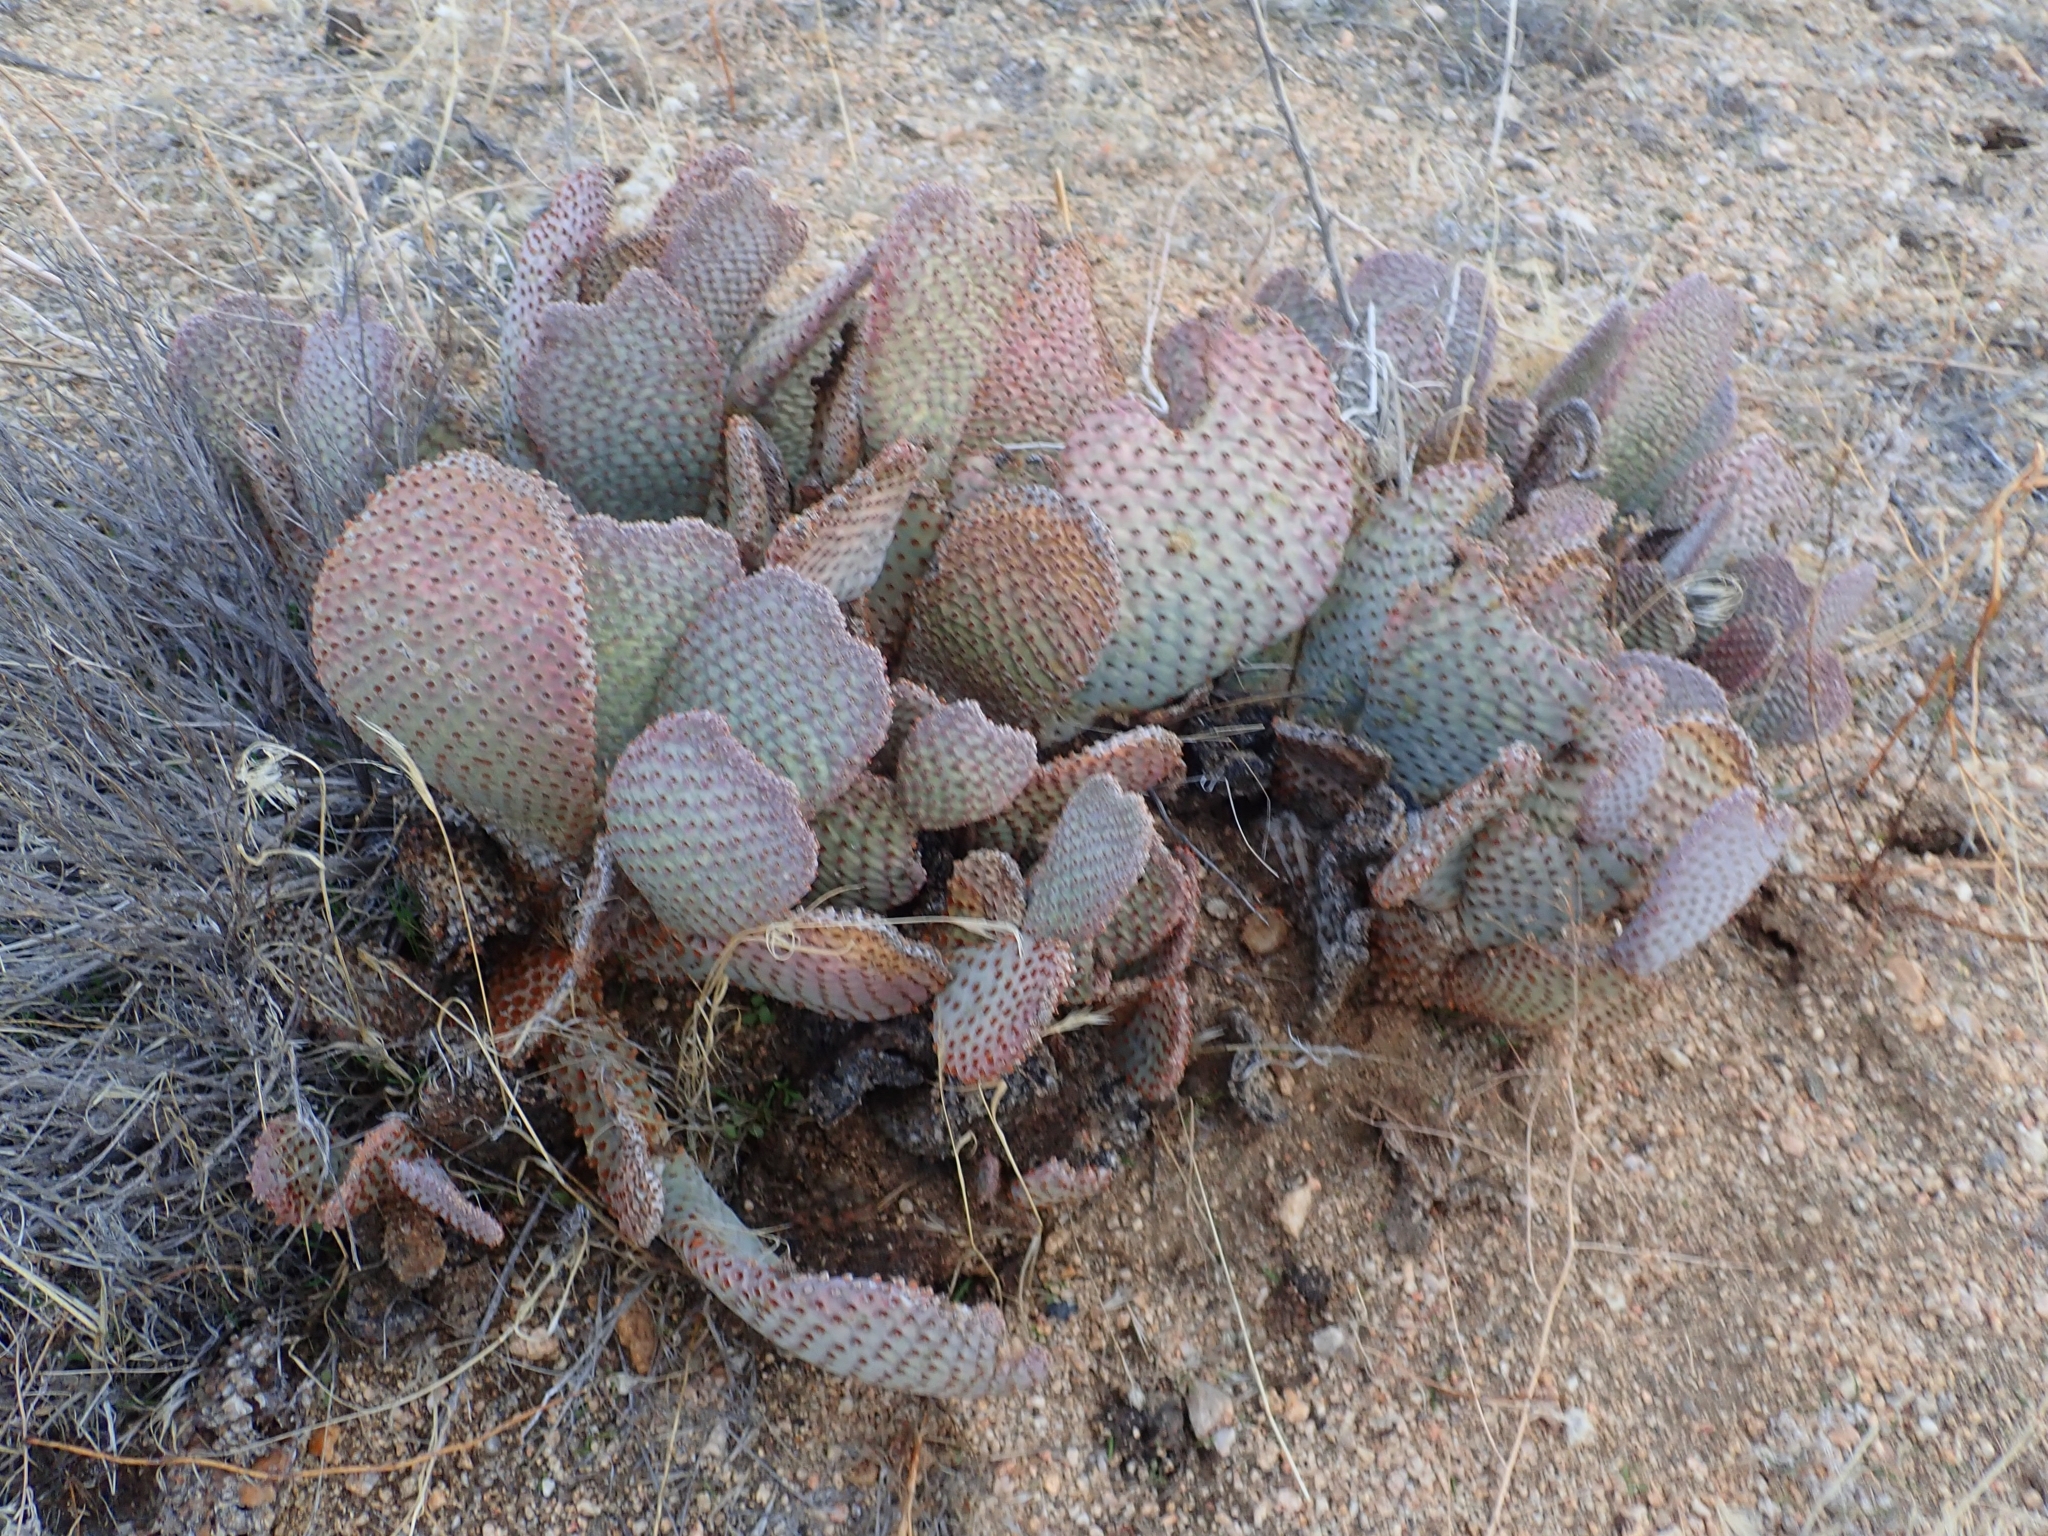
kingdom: Plantae
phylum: Tracheophyta
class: Magnoliopsida
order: Caryophyllales
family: Cactaceae
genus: Opuntia
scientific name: Opuntia basilaris
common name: Beavertail prickly-pear
